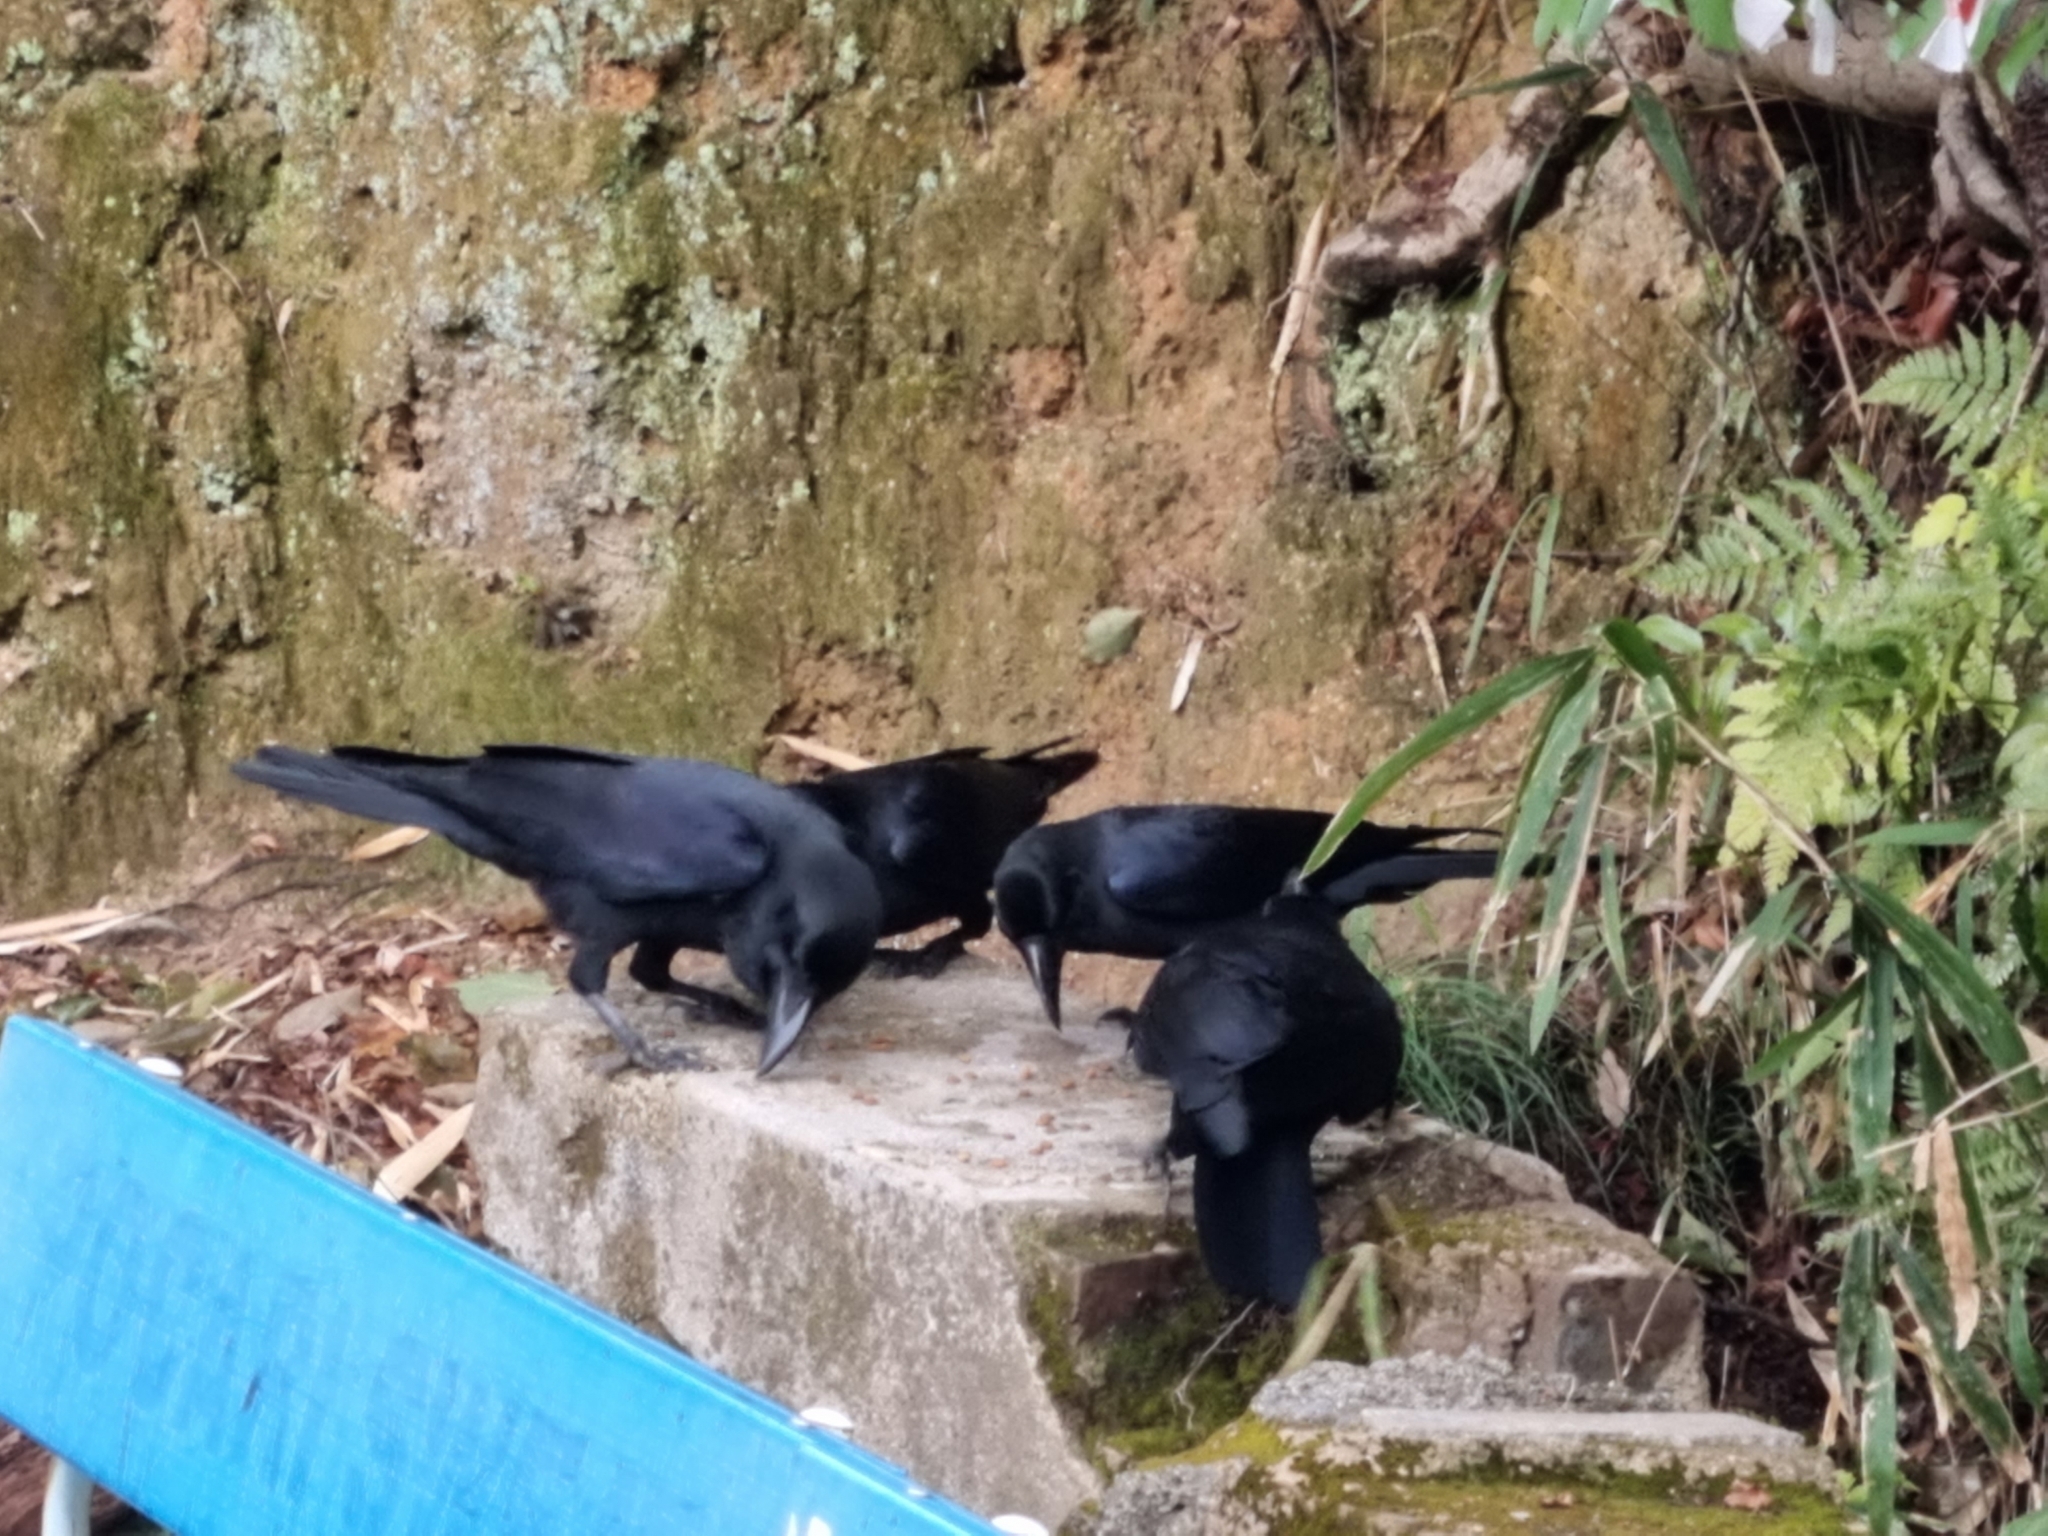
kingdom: Animalia
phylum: Chordata
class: Aves
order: Passeriformes
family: Corvidae
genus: Corvus
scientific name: Corvus macrorhynchos
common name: Large-billed crow
